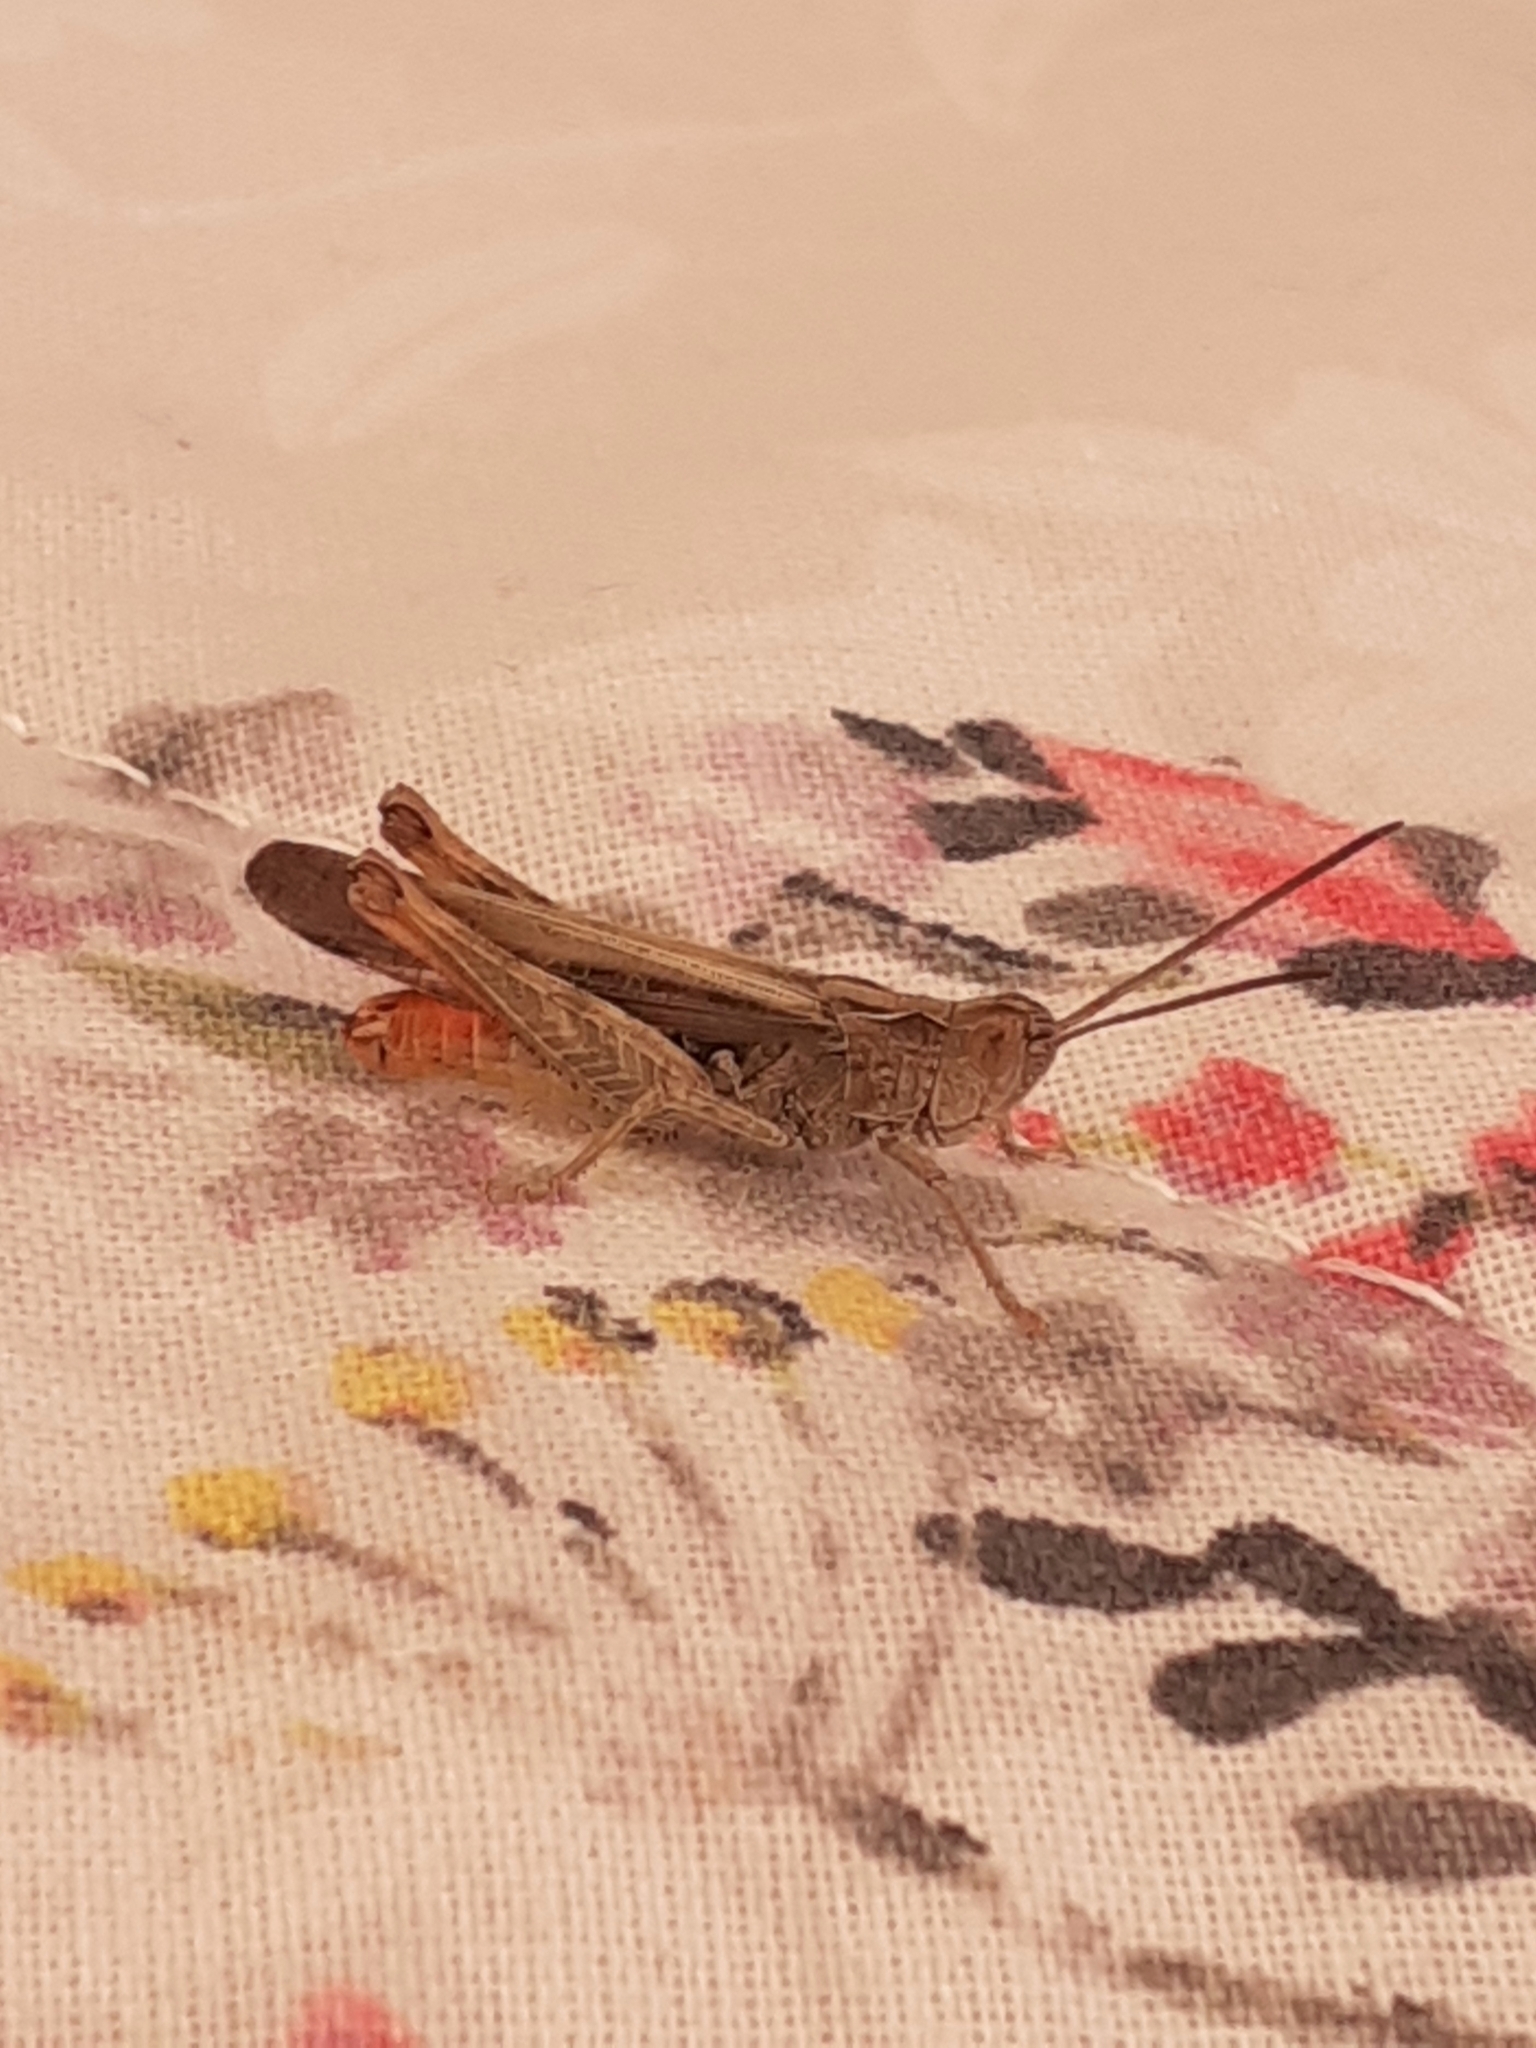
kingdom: Animalia
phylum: Arthropoda
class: Insecta
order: Orthoptera
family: Acrididae
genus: Chorthippus
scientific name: Chorthippus brunneus
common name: Field grasshopper
